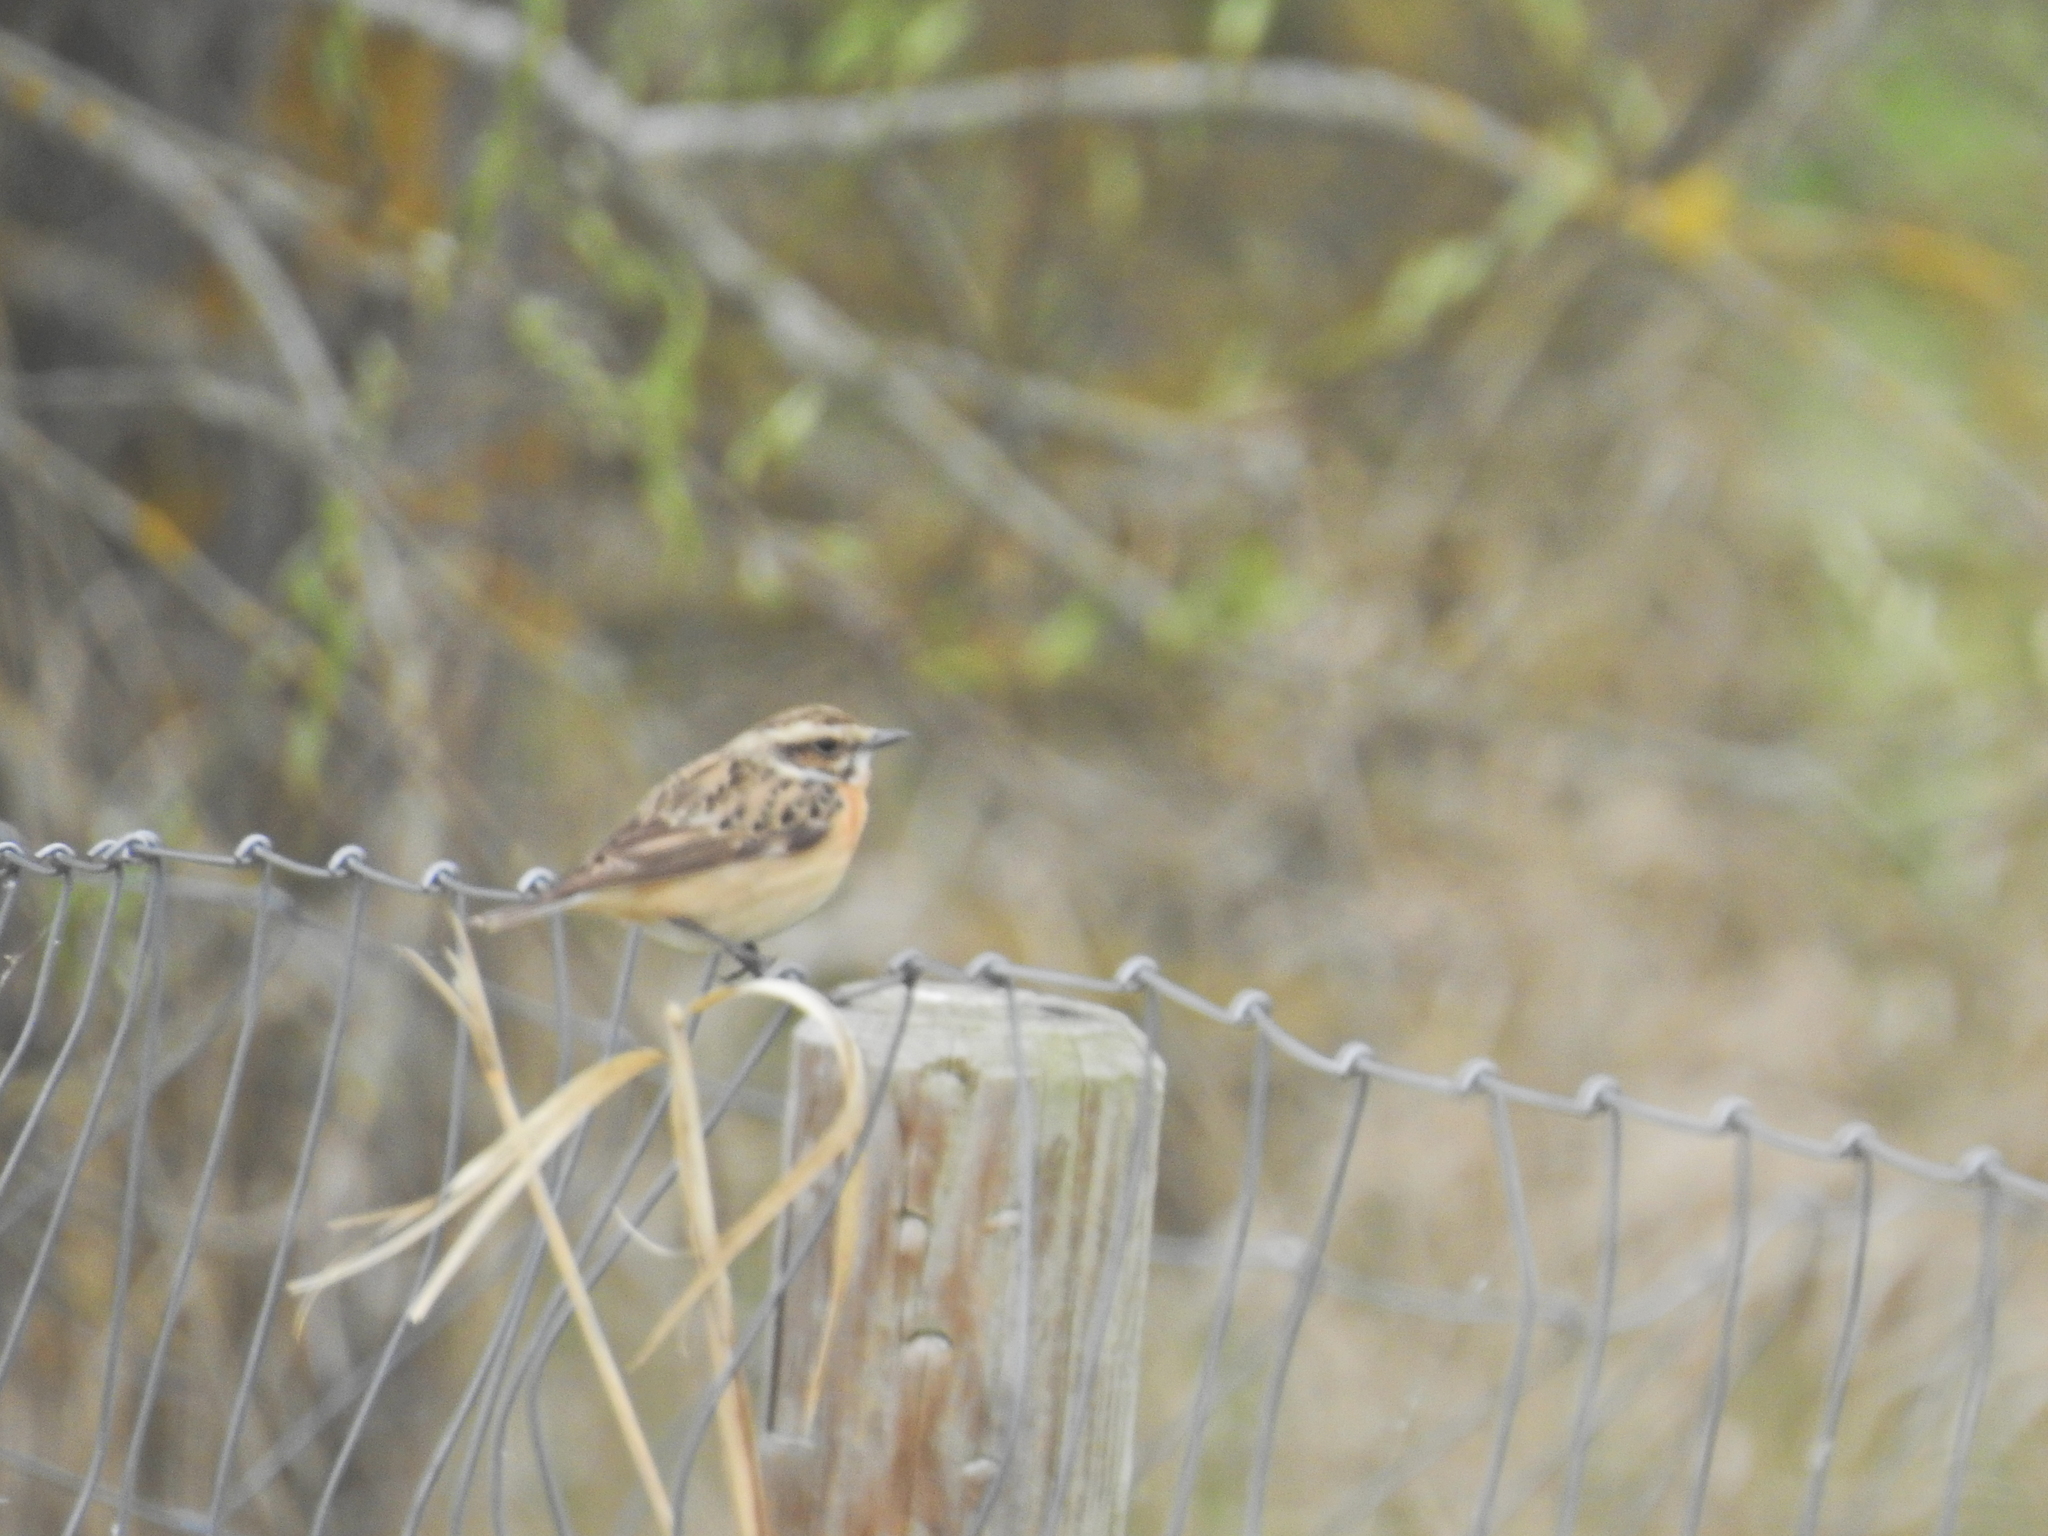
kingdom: Animalia
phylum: Chordata
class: Aves
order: Passeriformes
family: Muscicapidae
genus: Saxicola
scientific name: Saxicola rubetra
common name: Whinchat
